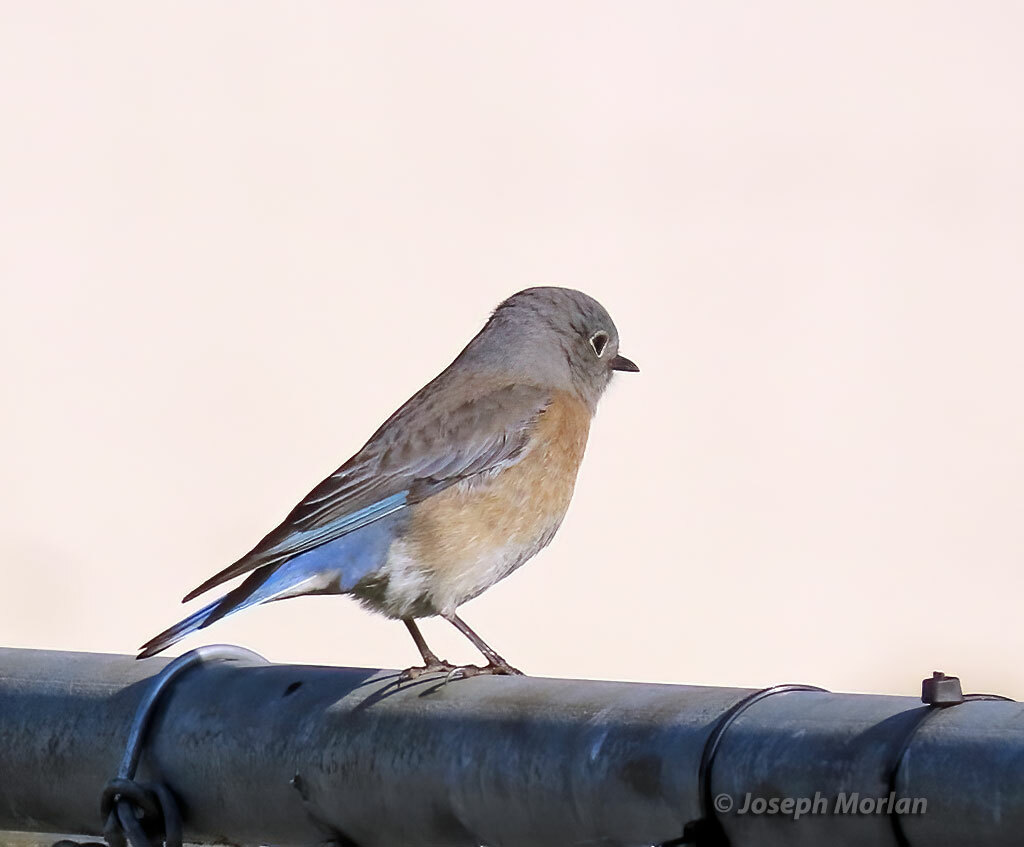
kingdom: Animalia
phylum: Chordata
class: Aves
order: Passeriformes
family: Turdidae
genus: Sialia
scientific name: Sialia mexicana
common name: Western bluebird
